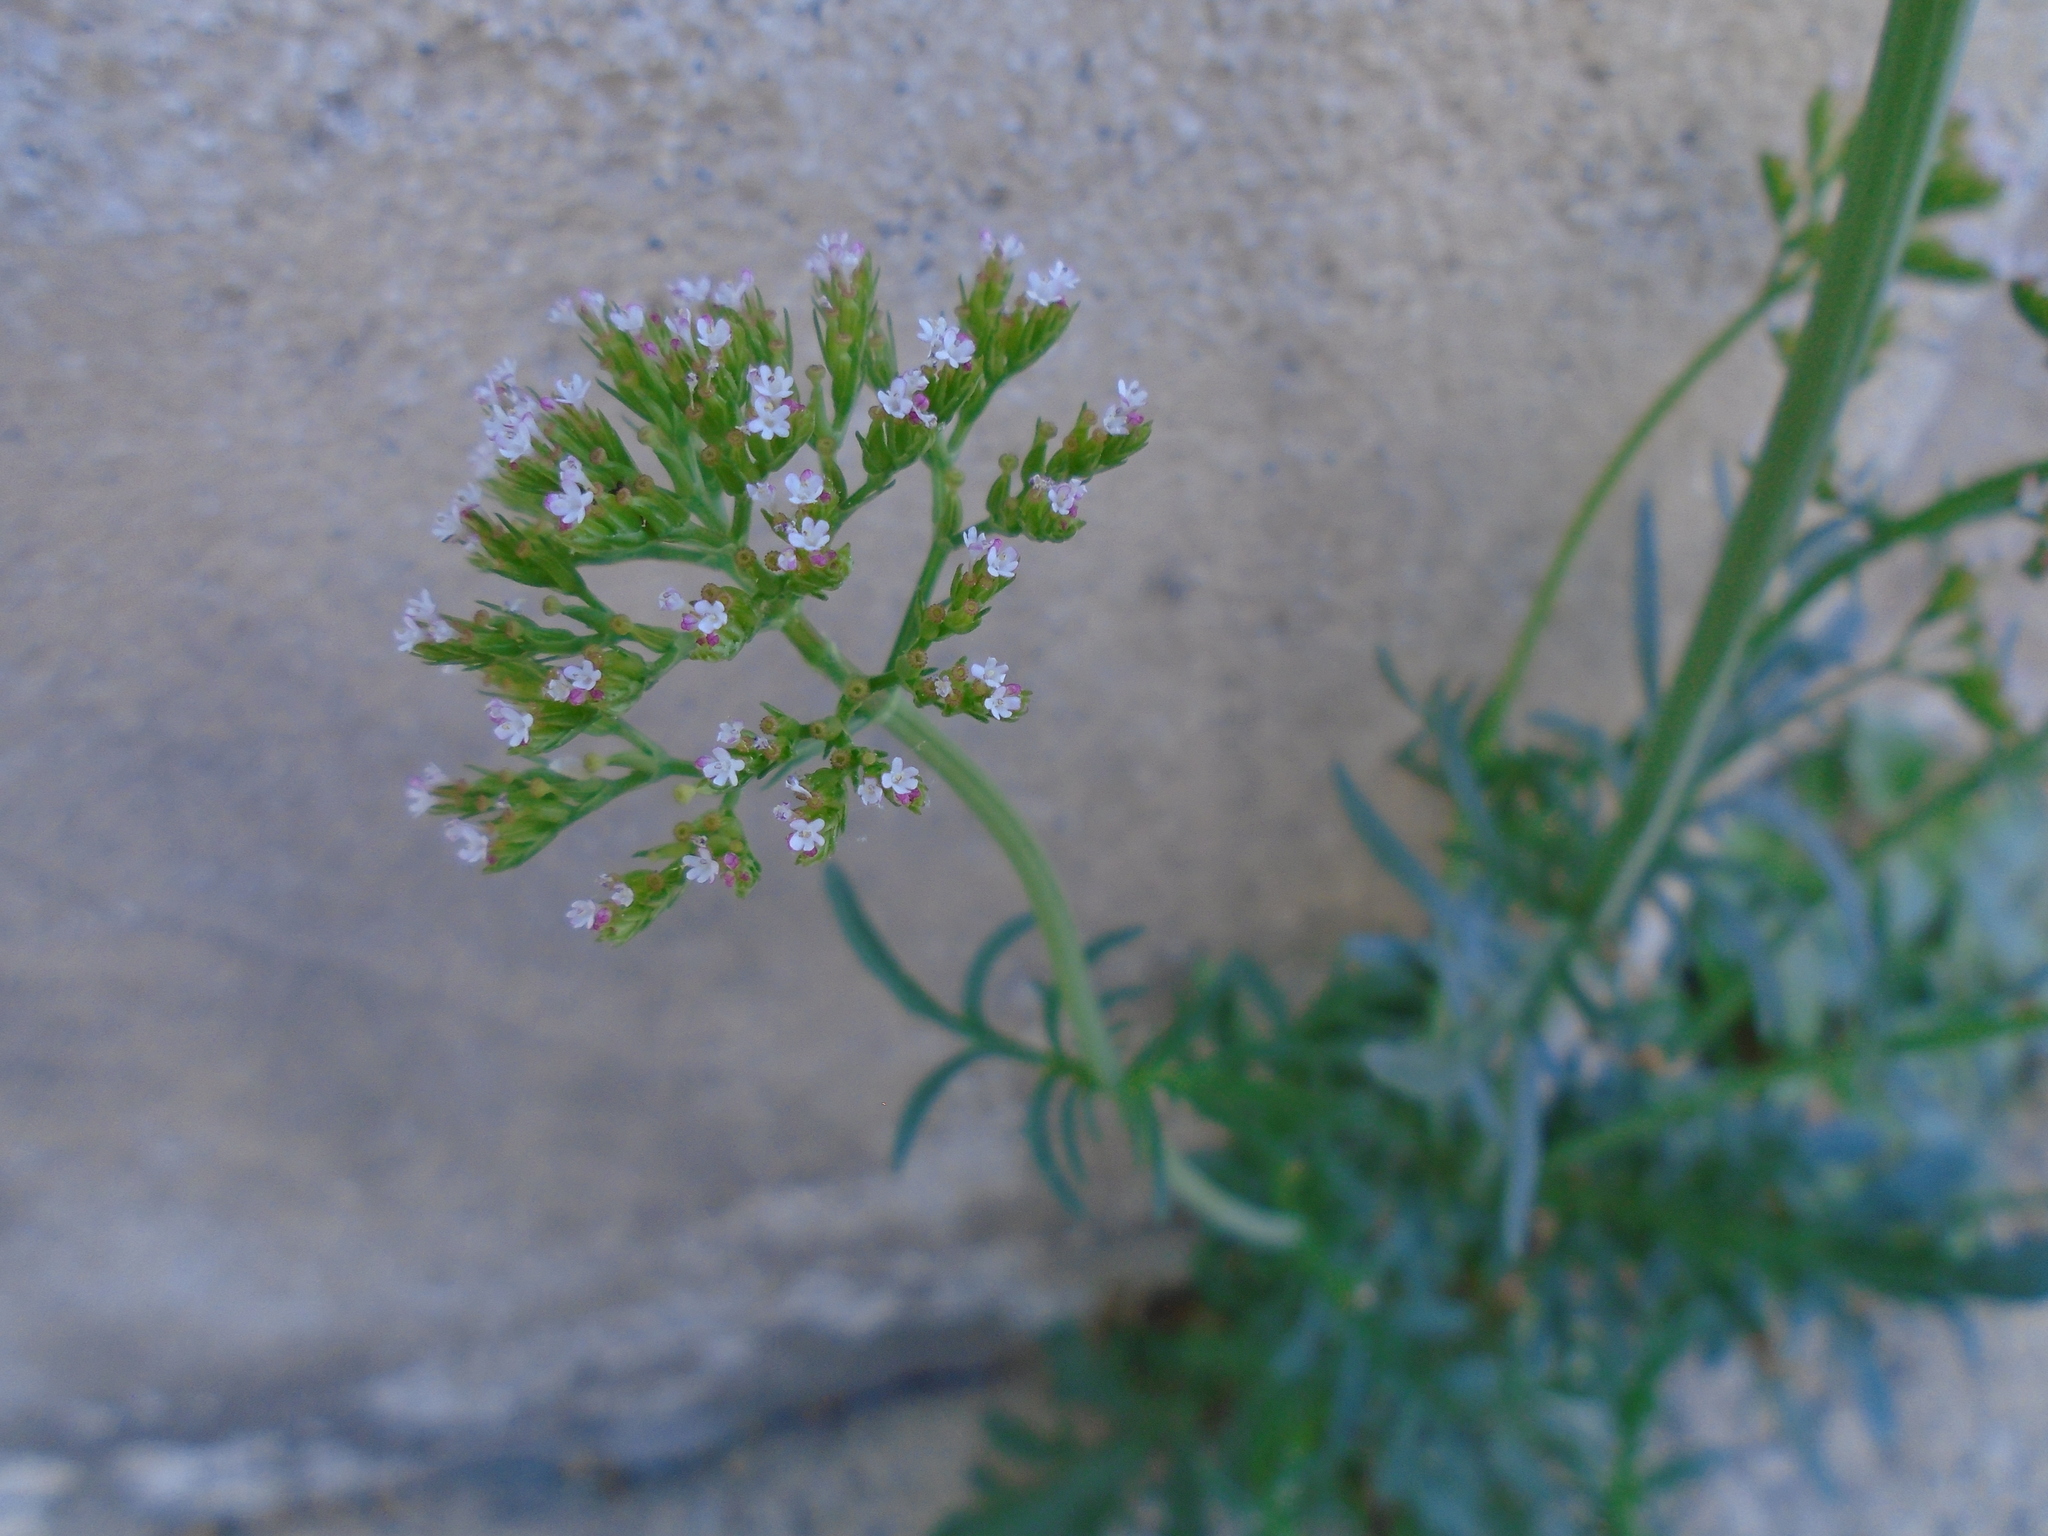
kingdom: Plantae
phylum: Tracheophyta
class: Magnoliopsida
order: Dipsacales
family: Caprifoliaceae
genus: Centranthus
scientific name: Centranthus calcitrapae
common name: Annual valerian
